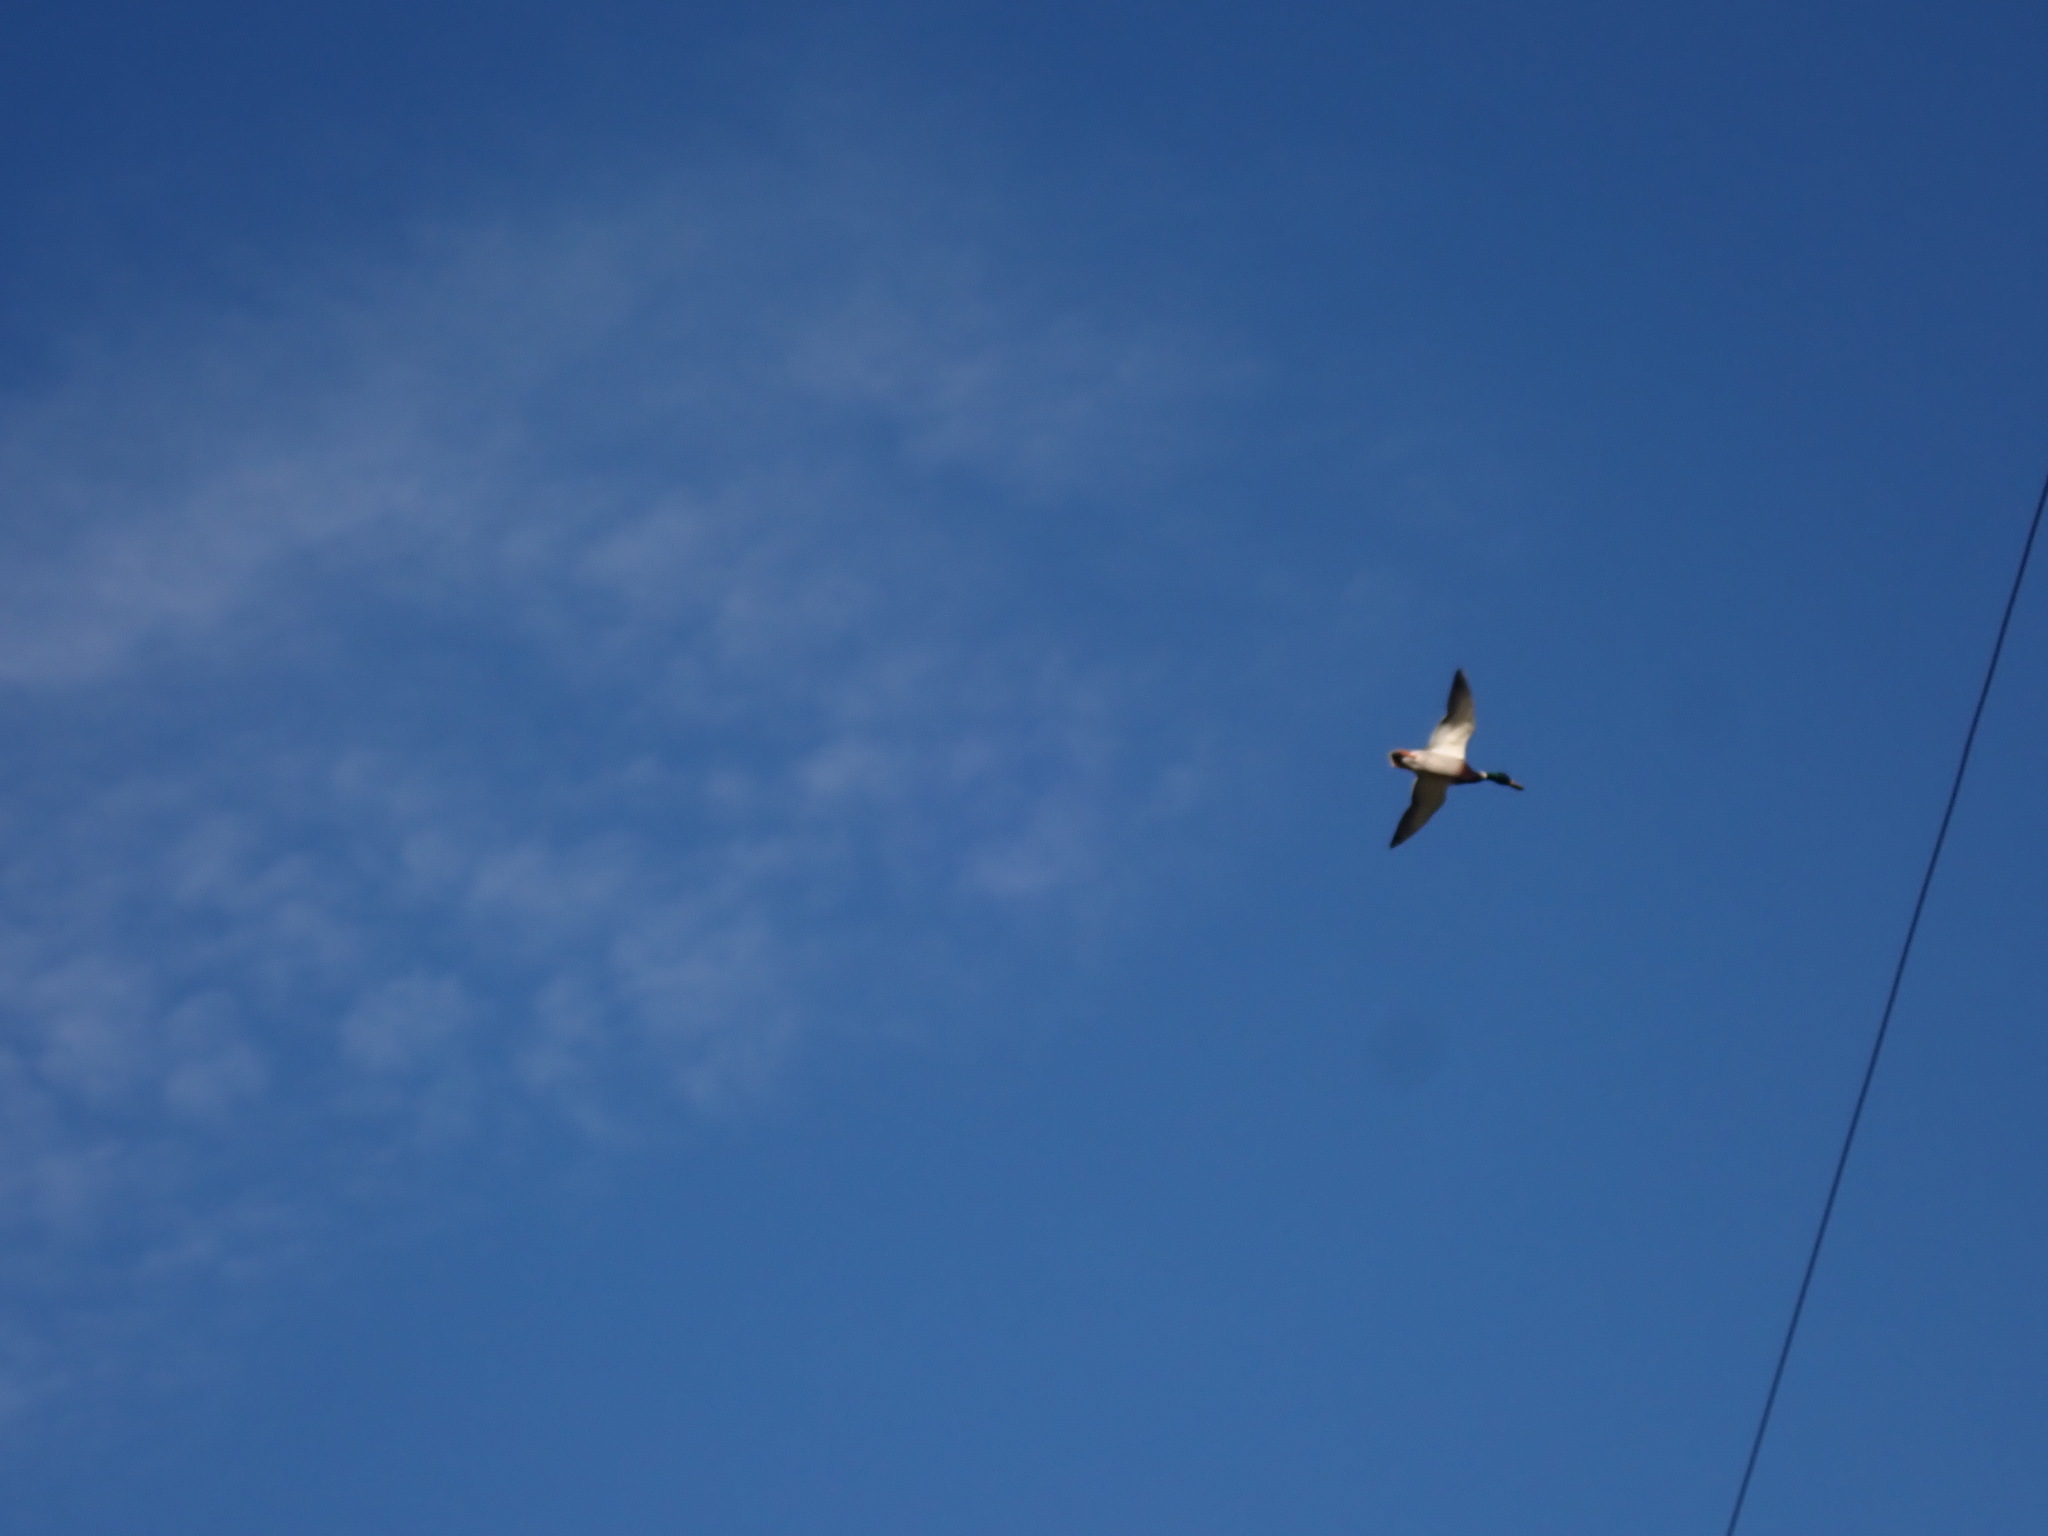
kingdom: Animalia
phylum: Chordata
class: Aves
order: Anseriformes
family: Anatidae
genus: Anas
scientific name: Anas platyrhynchos
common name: Mallard
